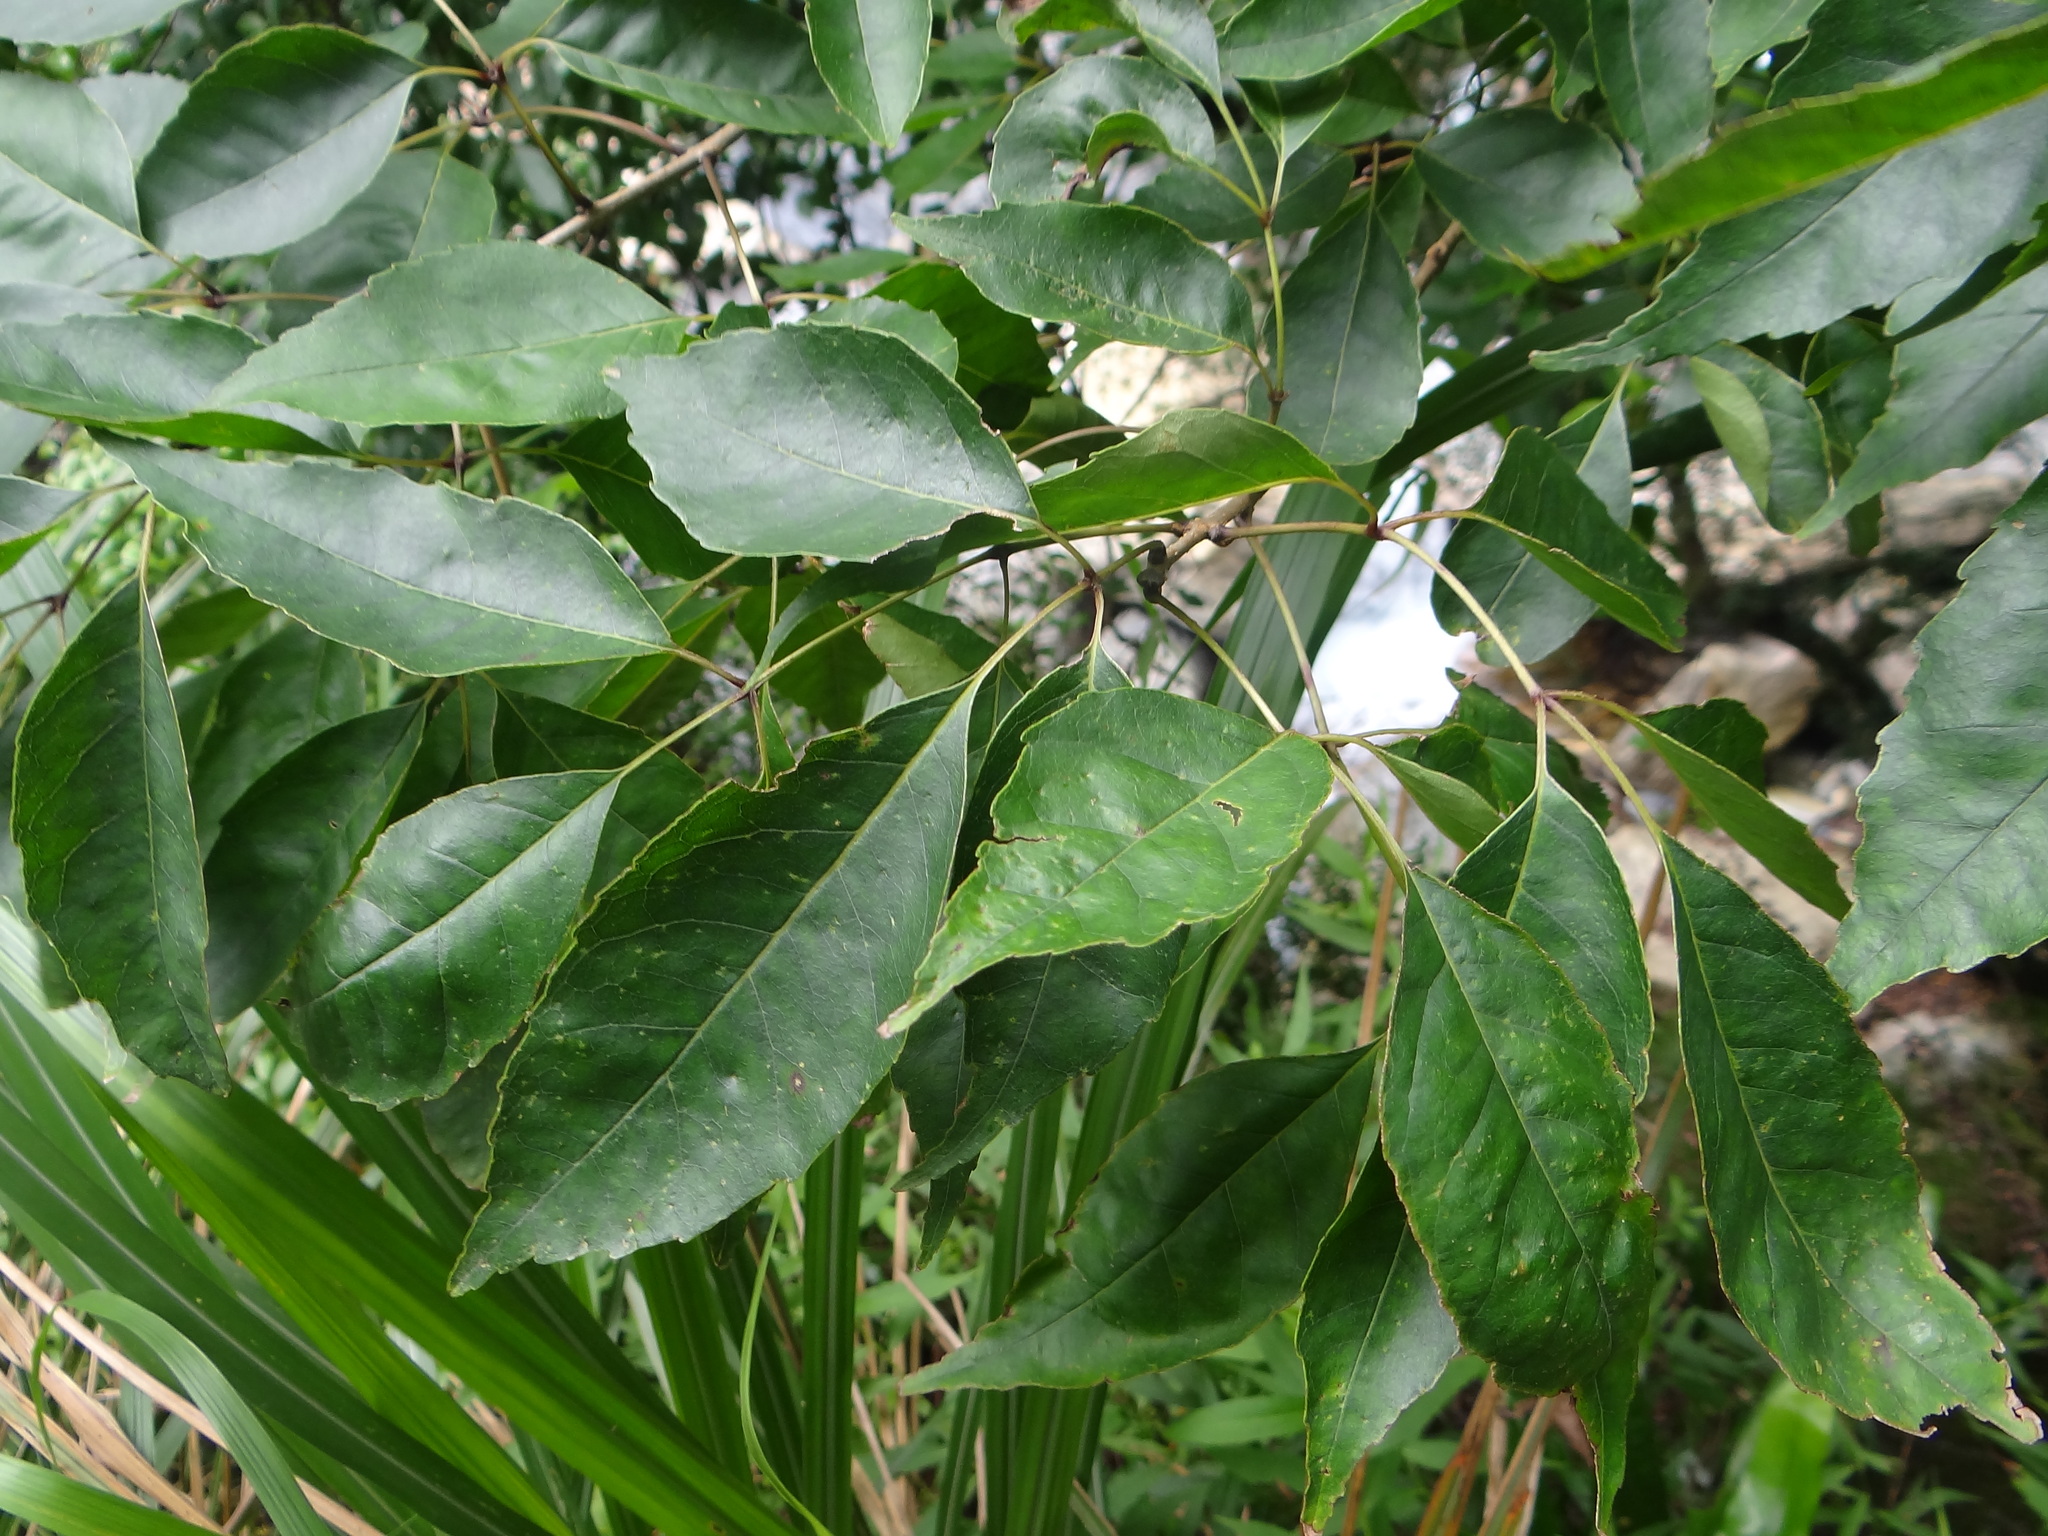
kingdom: Plantae
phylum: Tracheophyta
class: Magnoliopsida
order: Lamiales
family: Oleaceae
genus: Fraxinus
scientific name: Fraxinus insularis
